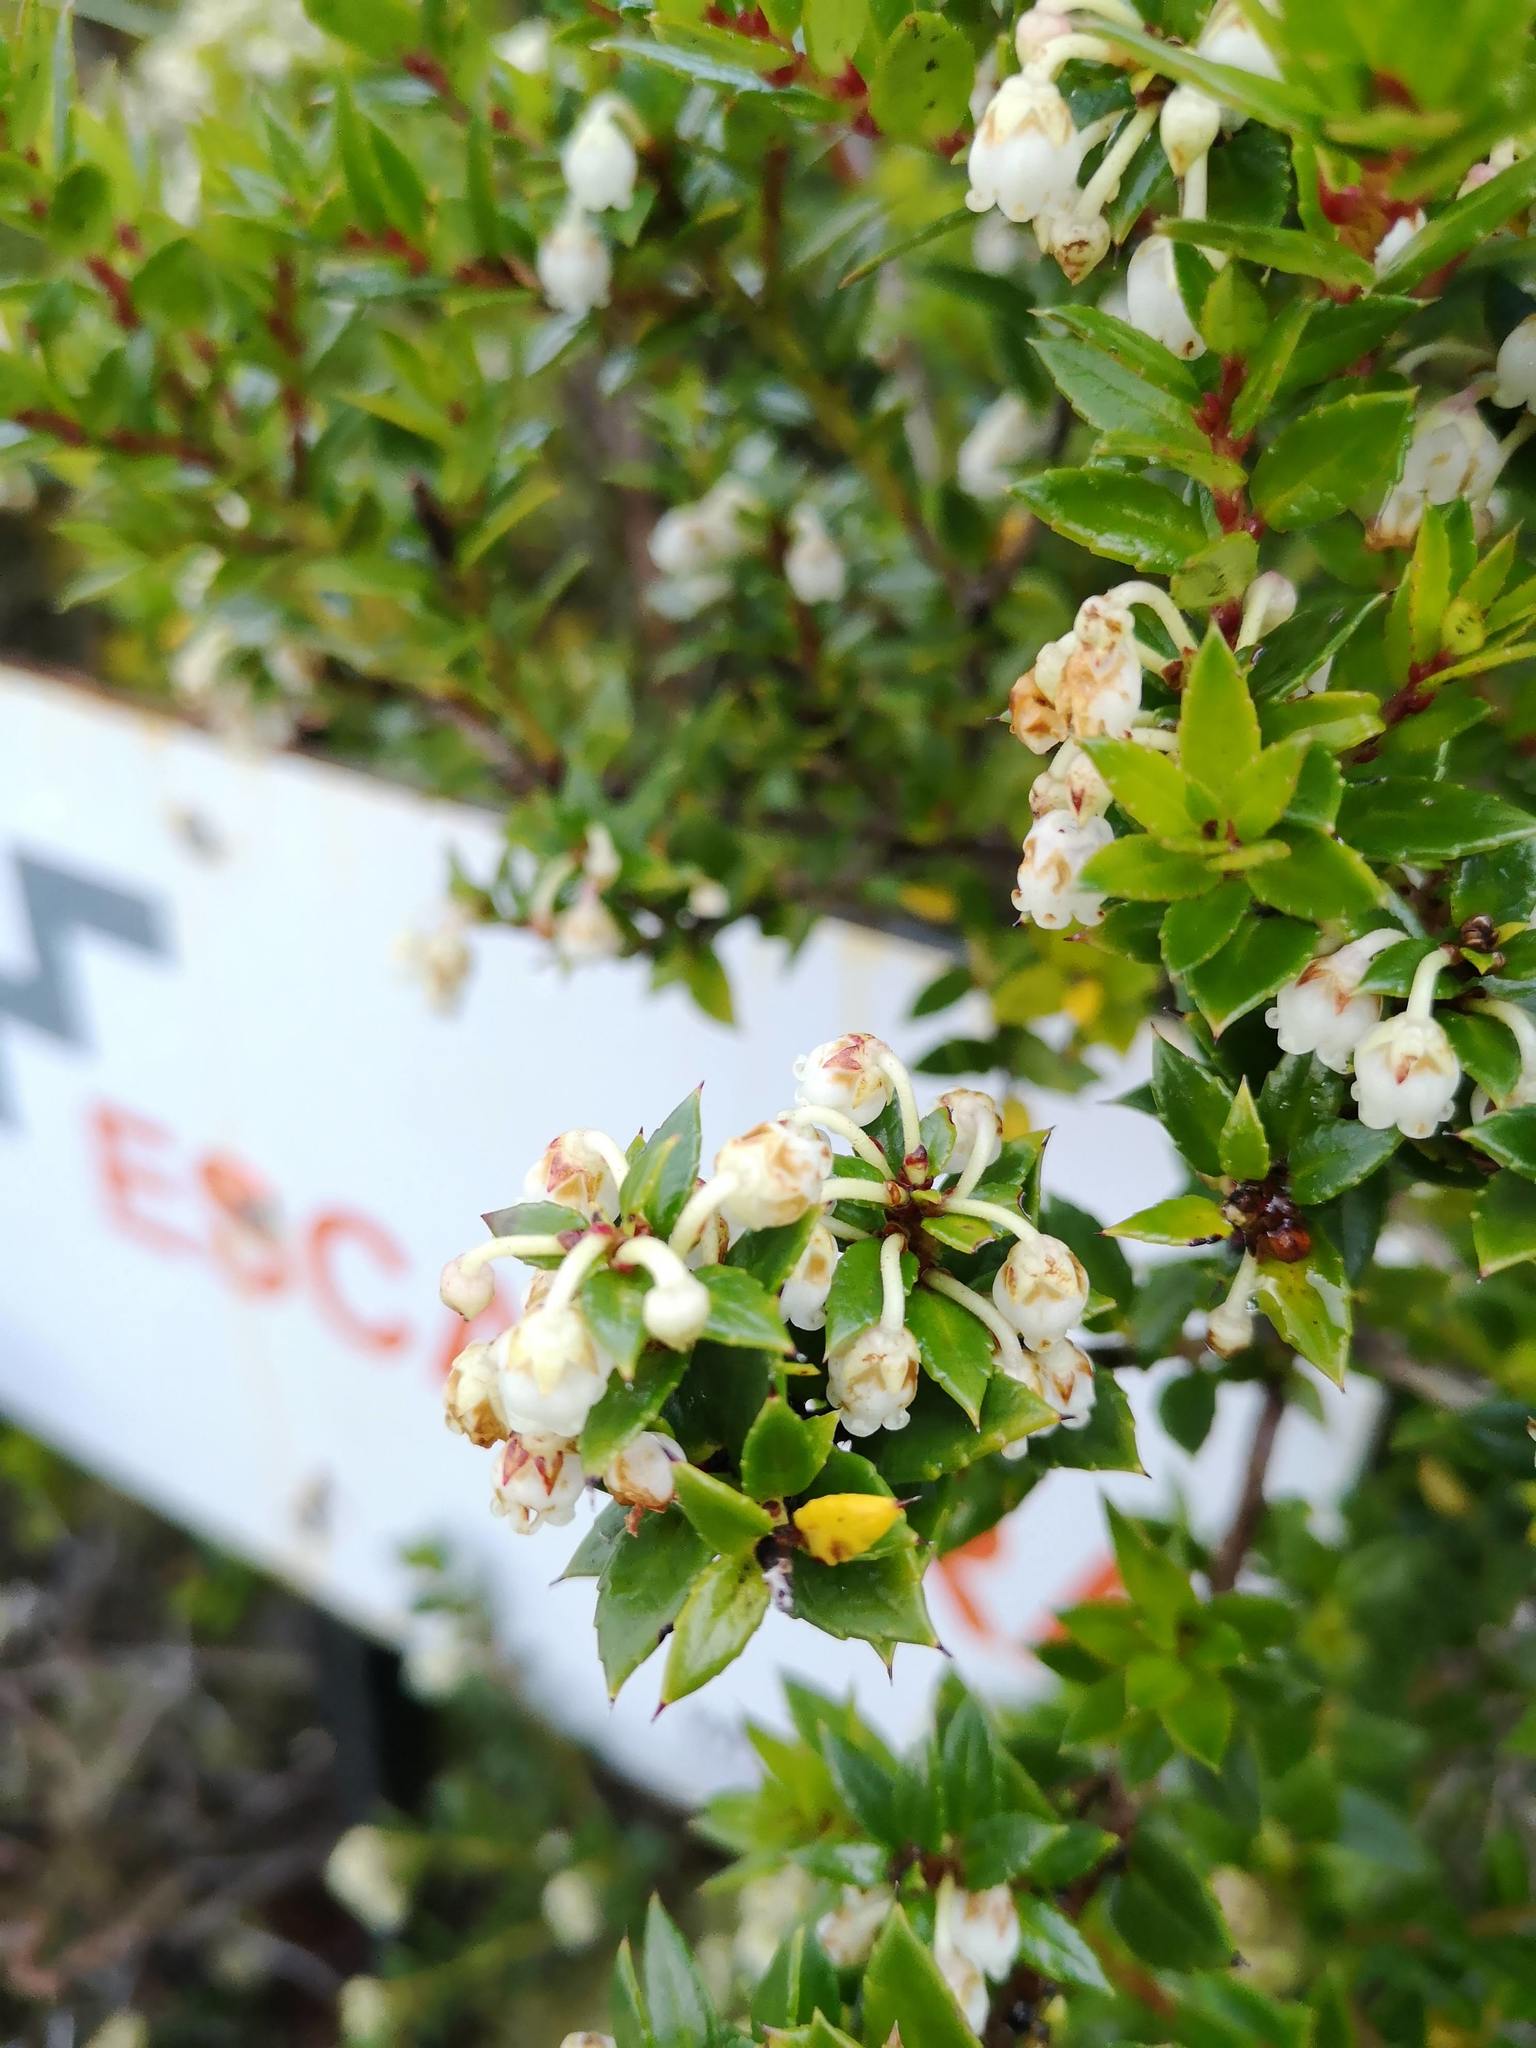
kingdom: Plantae
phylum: Tracheophyta
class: Magnoliopsida
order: Ericales
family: Ericaceae
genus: Gaultheria
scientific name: Gaultheria mucronata
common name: Prickly heath
